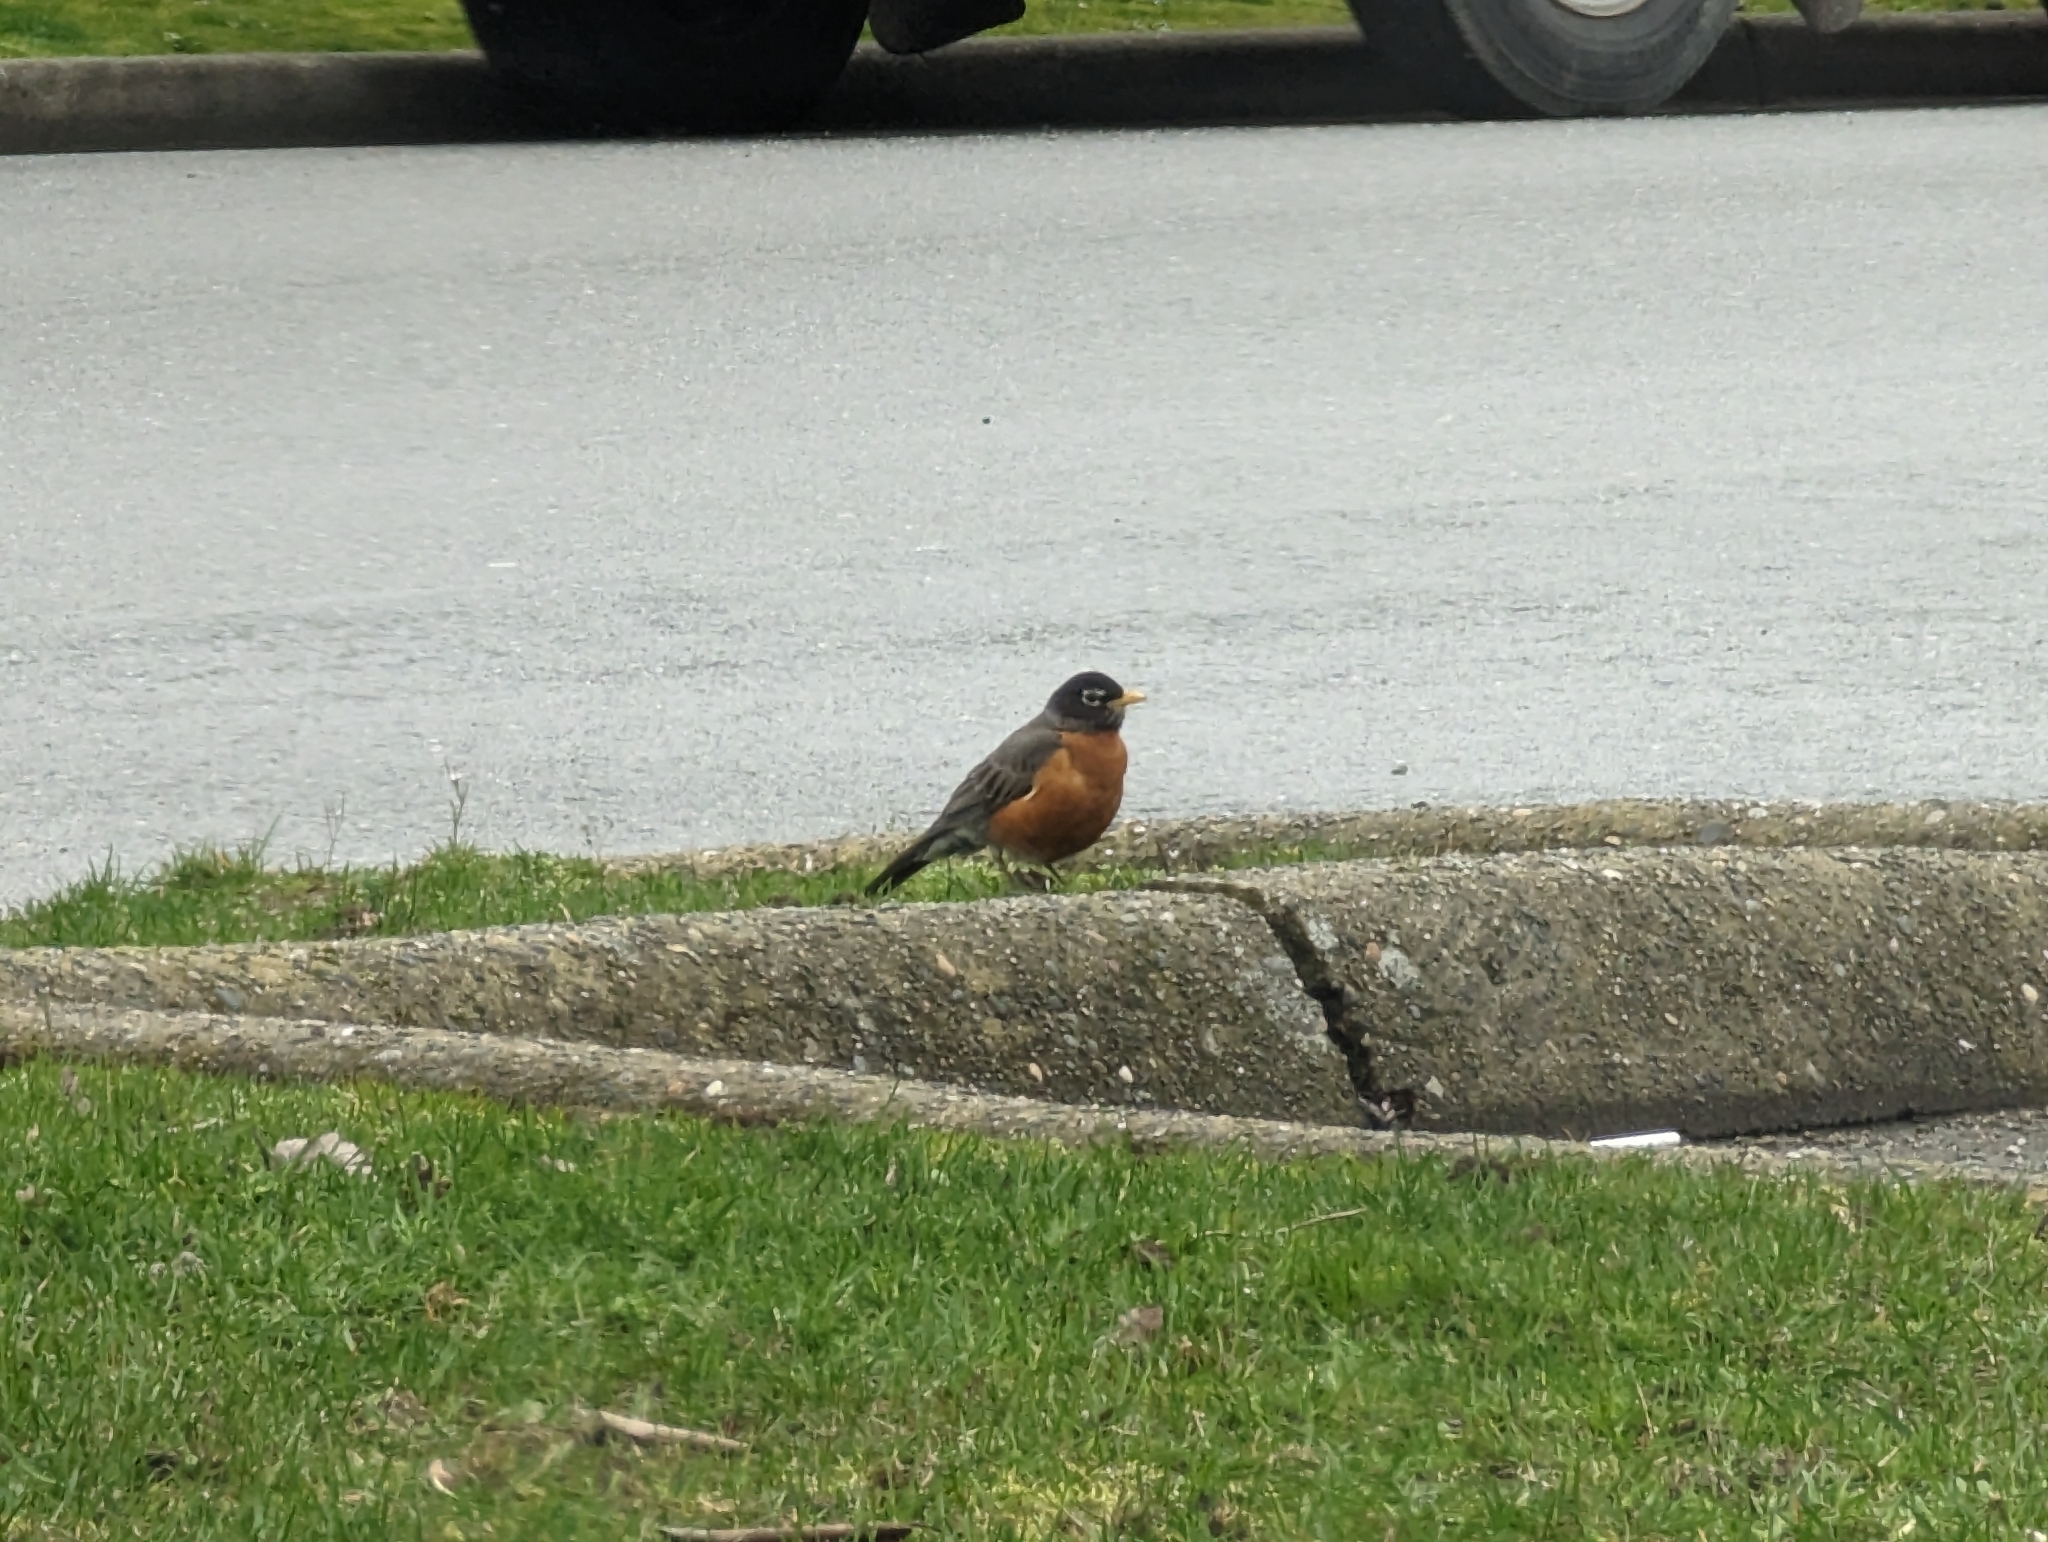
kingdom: Animalia
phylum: Chordata
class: Aves
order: Passeriformes
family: Turdidae
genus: Turdus
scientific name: Turdus migratorius
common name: American robin
